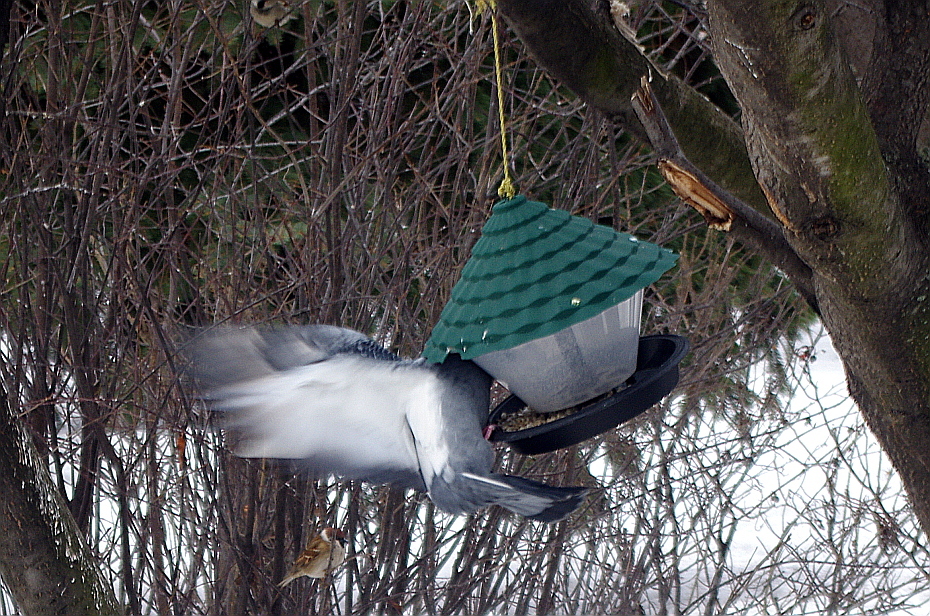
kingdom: Animalia
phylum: Chordata
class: Aves
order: Columbiformes
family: Columbidae
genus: Columba
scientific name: Columba livia
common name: Rock pigeon
